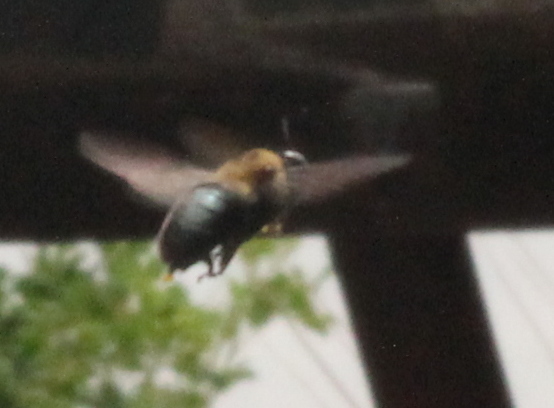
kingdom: Animalia
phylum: Arthropoda
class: Insecta
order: Hymenoptera
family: Apidae
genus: Xylocopa
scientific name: Xylocopa virginica
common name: Carpenter bee
